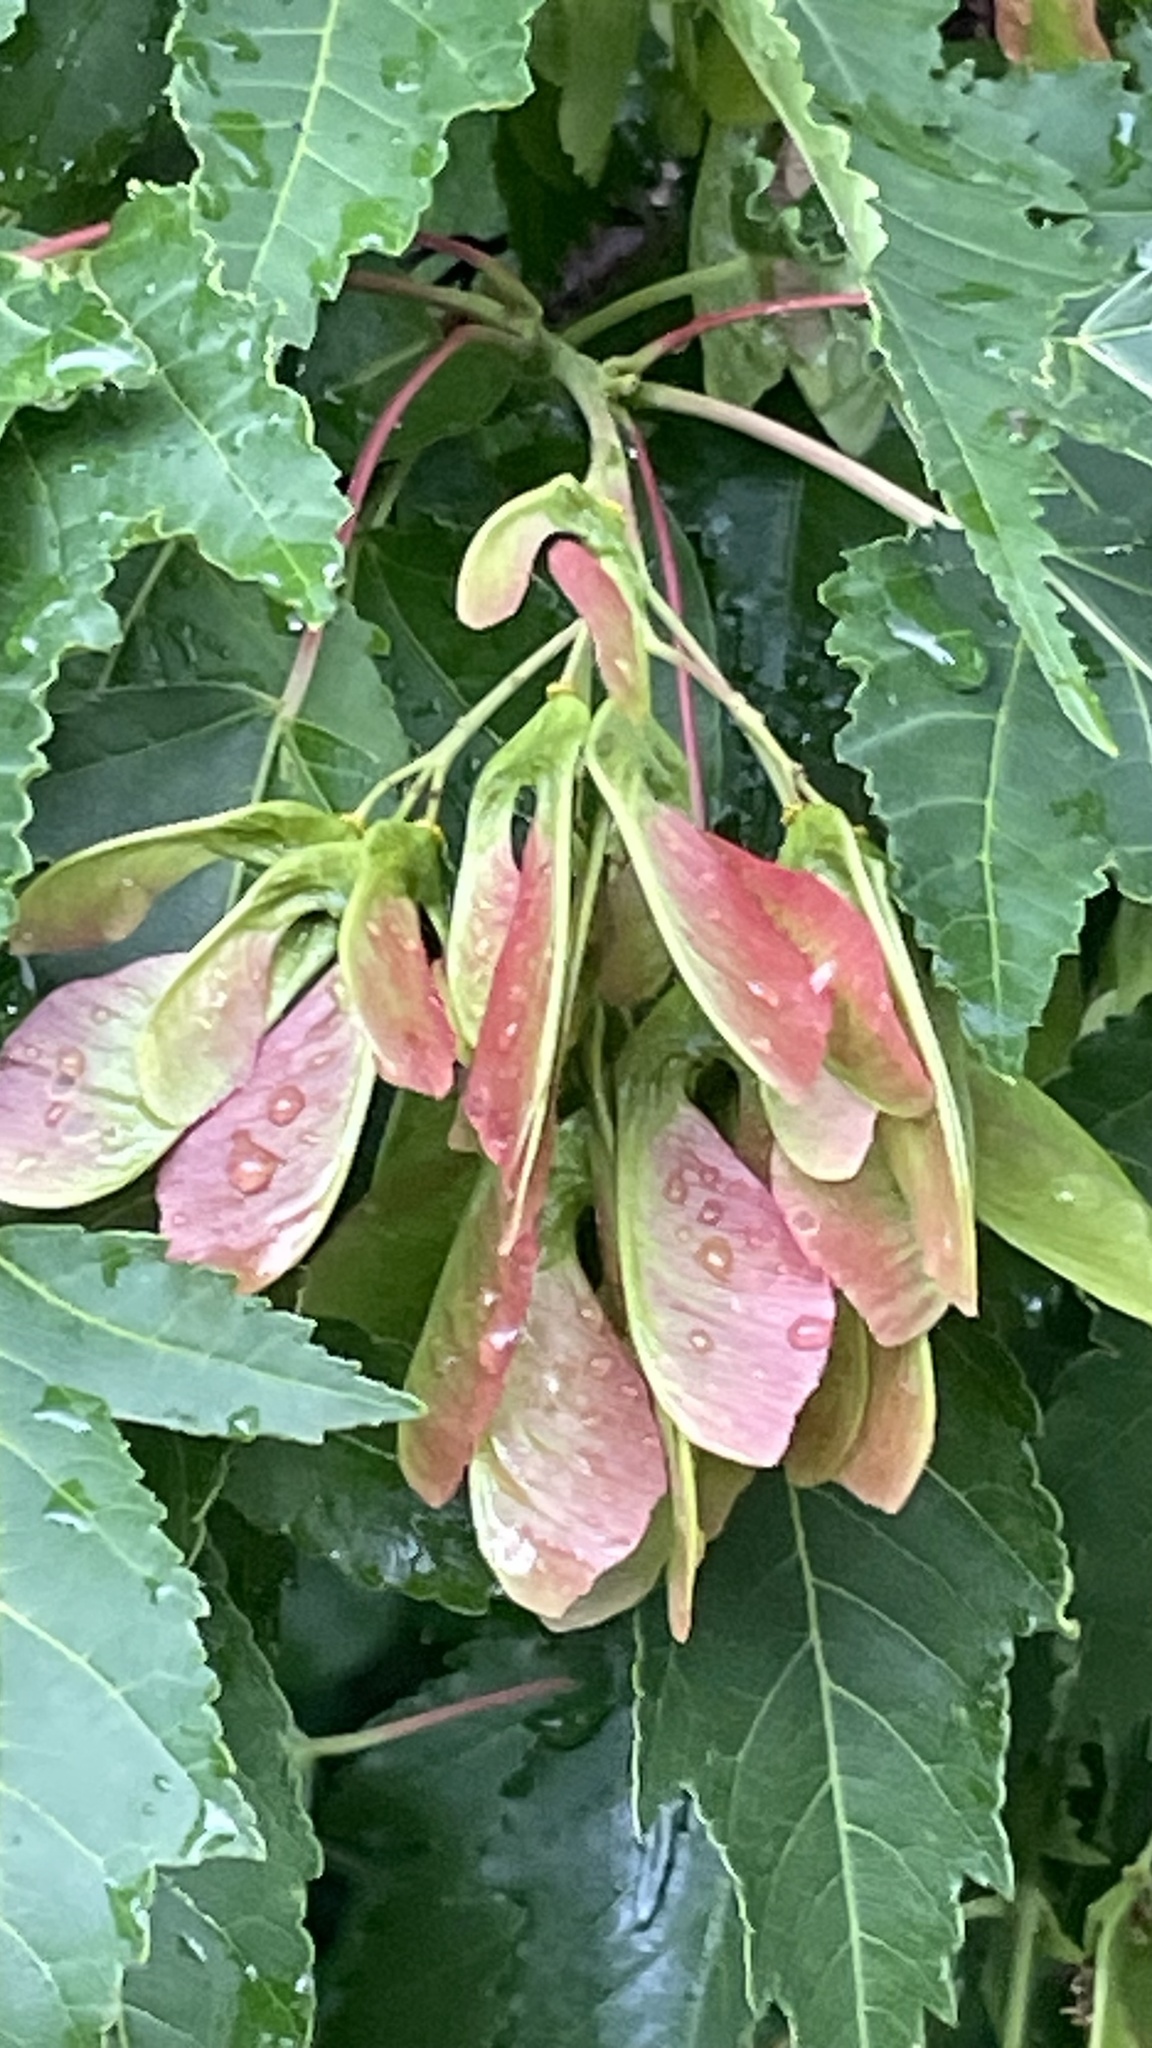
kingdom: Plantae
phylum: Tracheophyta
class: Magnoliopsida
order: Sapindales
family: Sapindaceae
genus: Acer
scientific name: Acer tataricum
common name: Tartar maple
